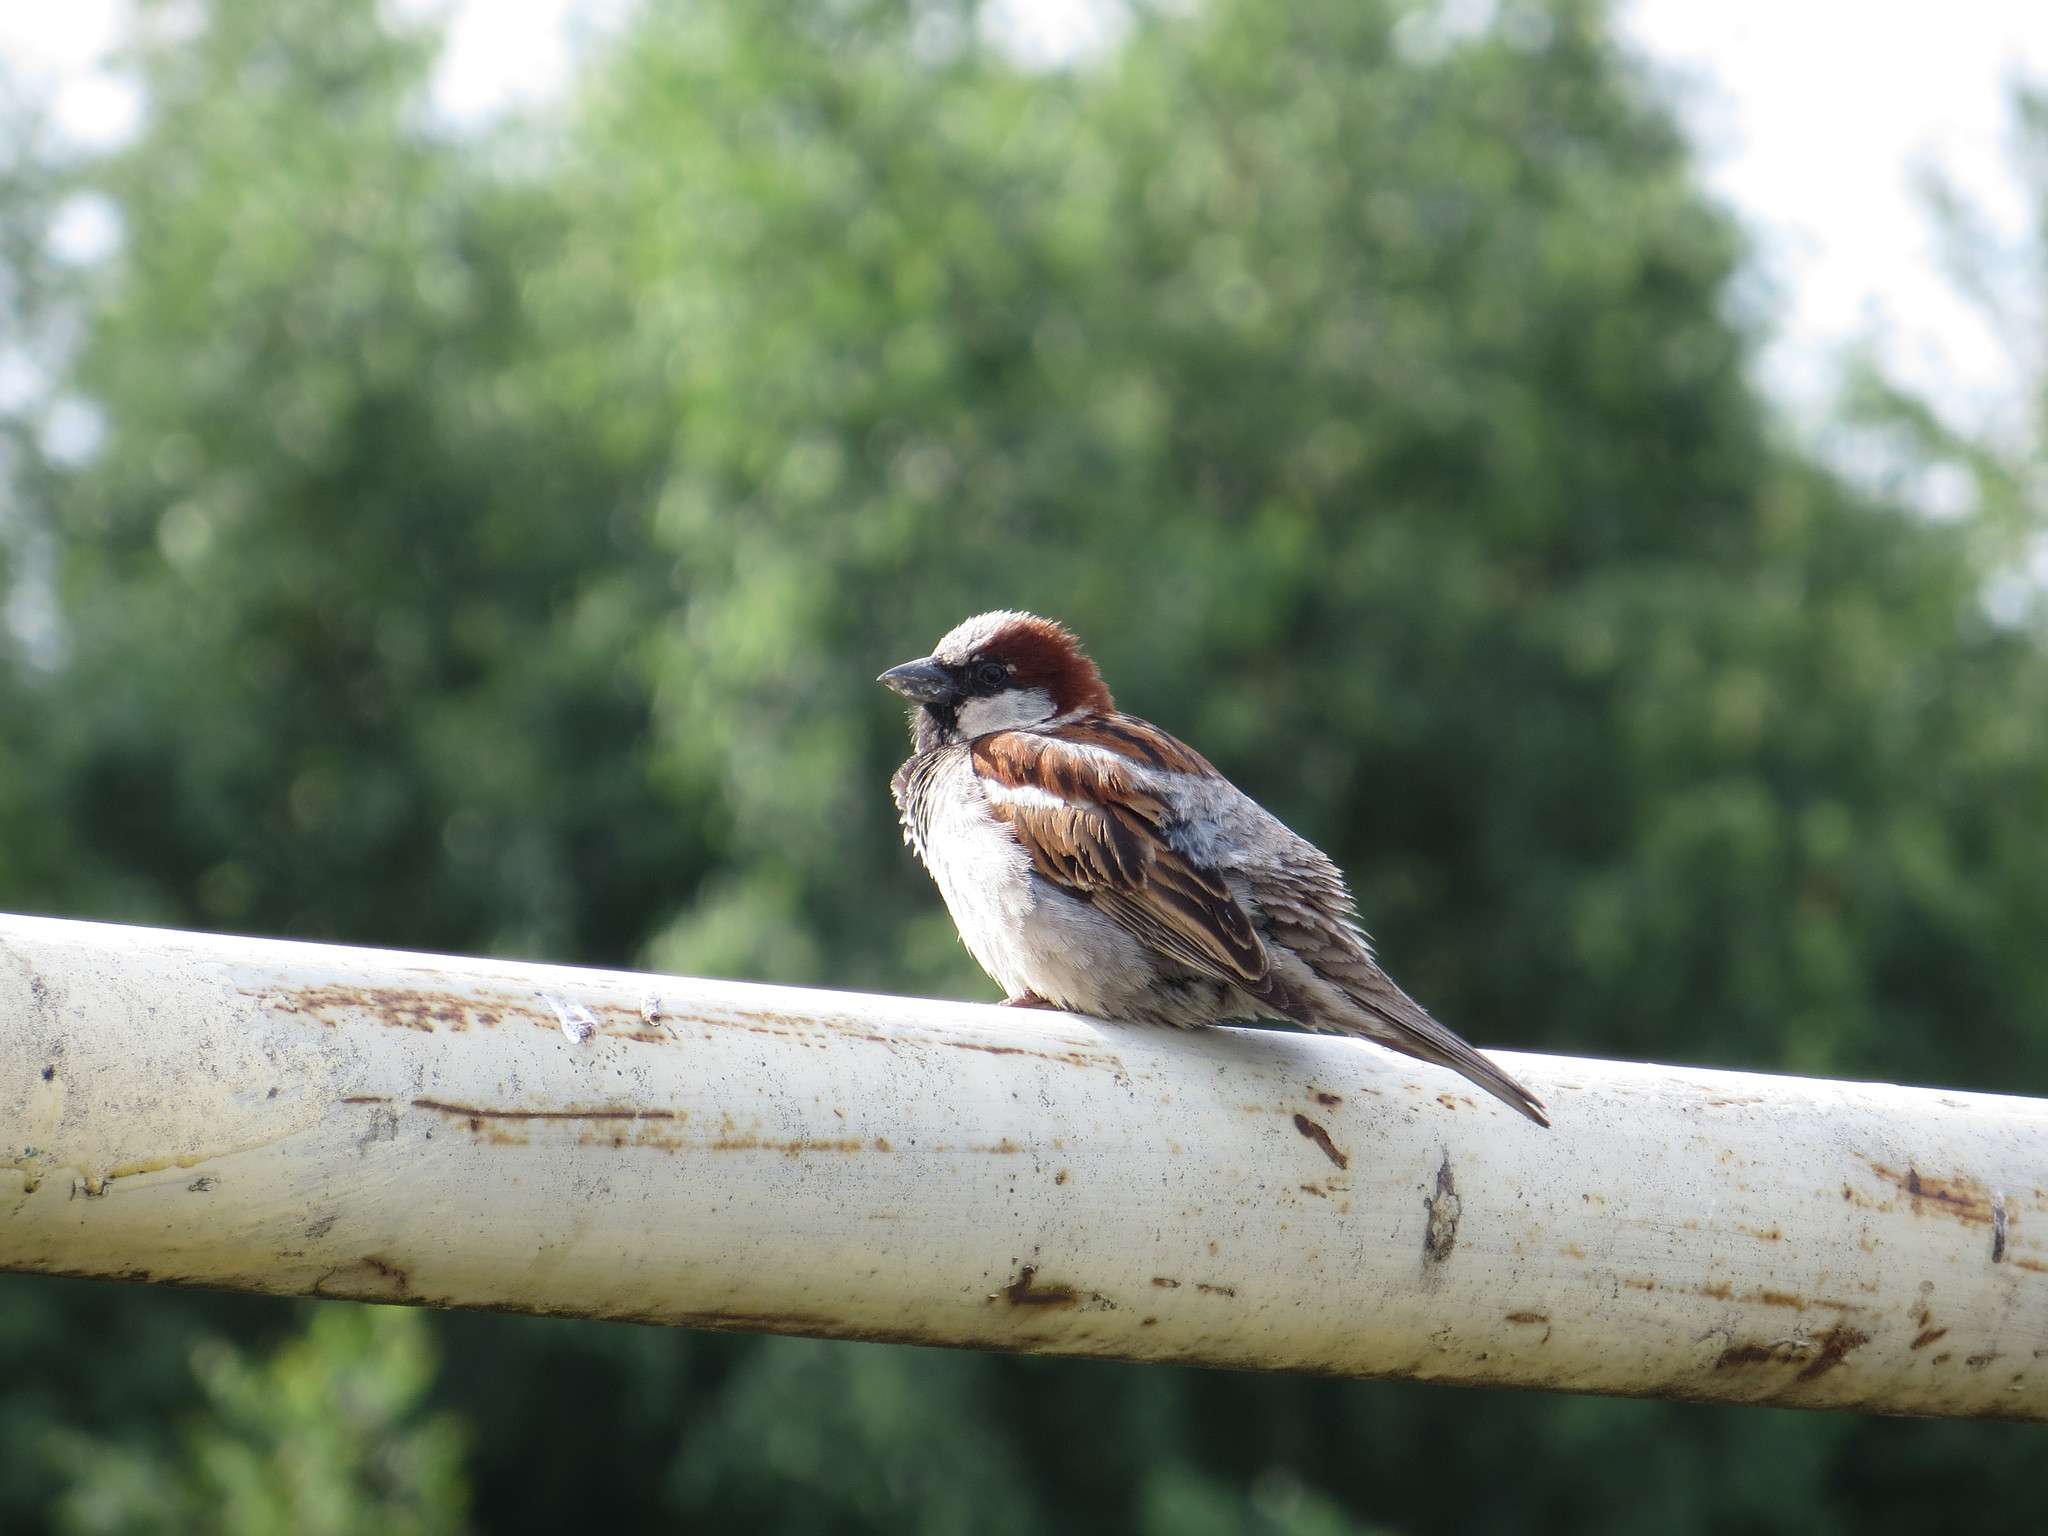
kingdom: Animalia
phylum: Chordata
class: Aves
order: Passeriformes
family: Passeridae
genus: Passer
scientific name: Passer domesticus
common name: House sparrow
